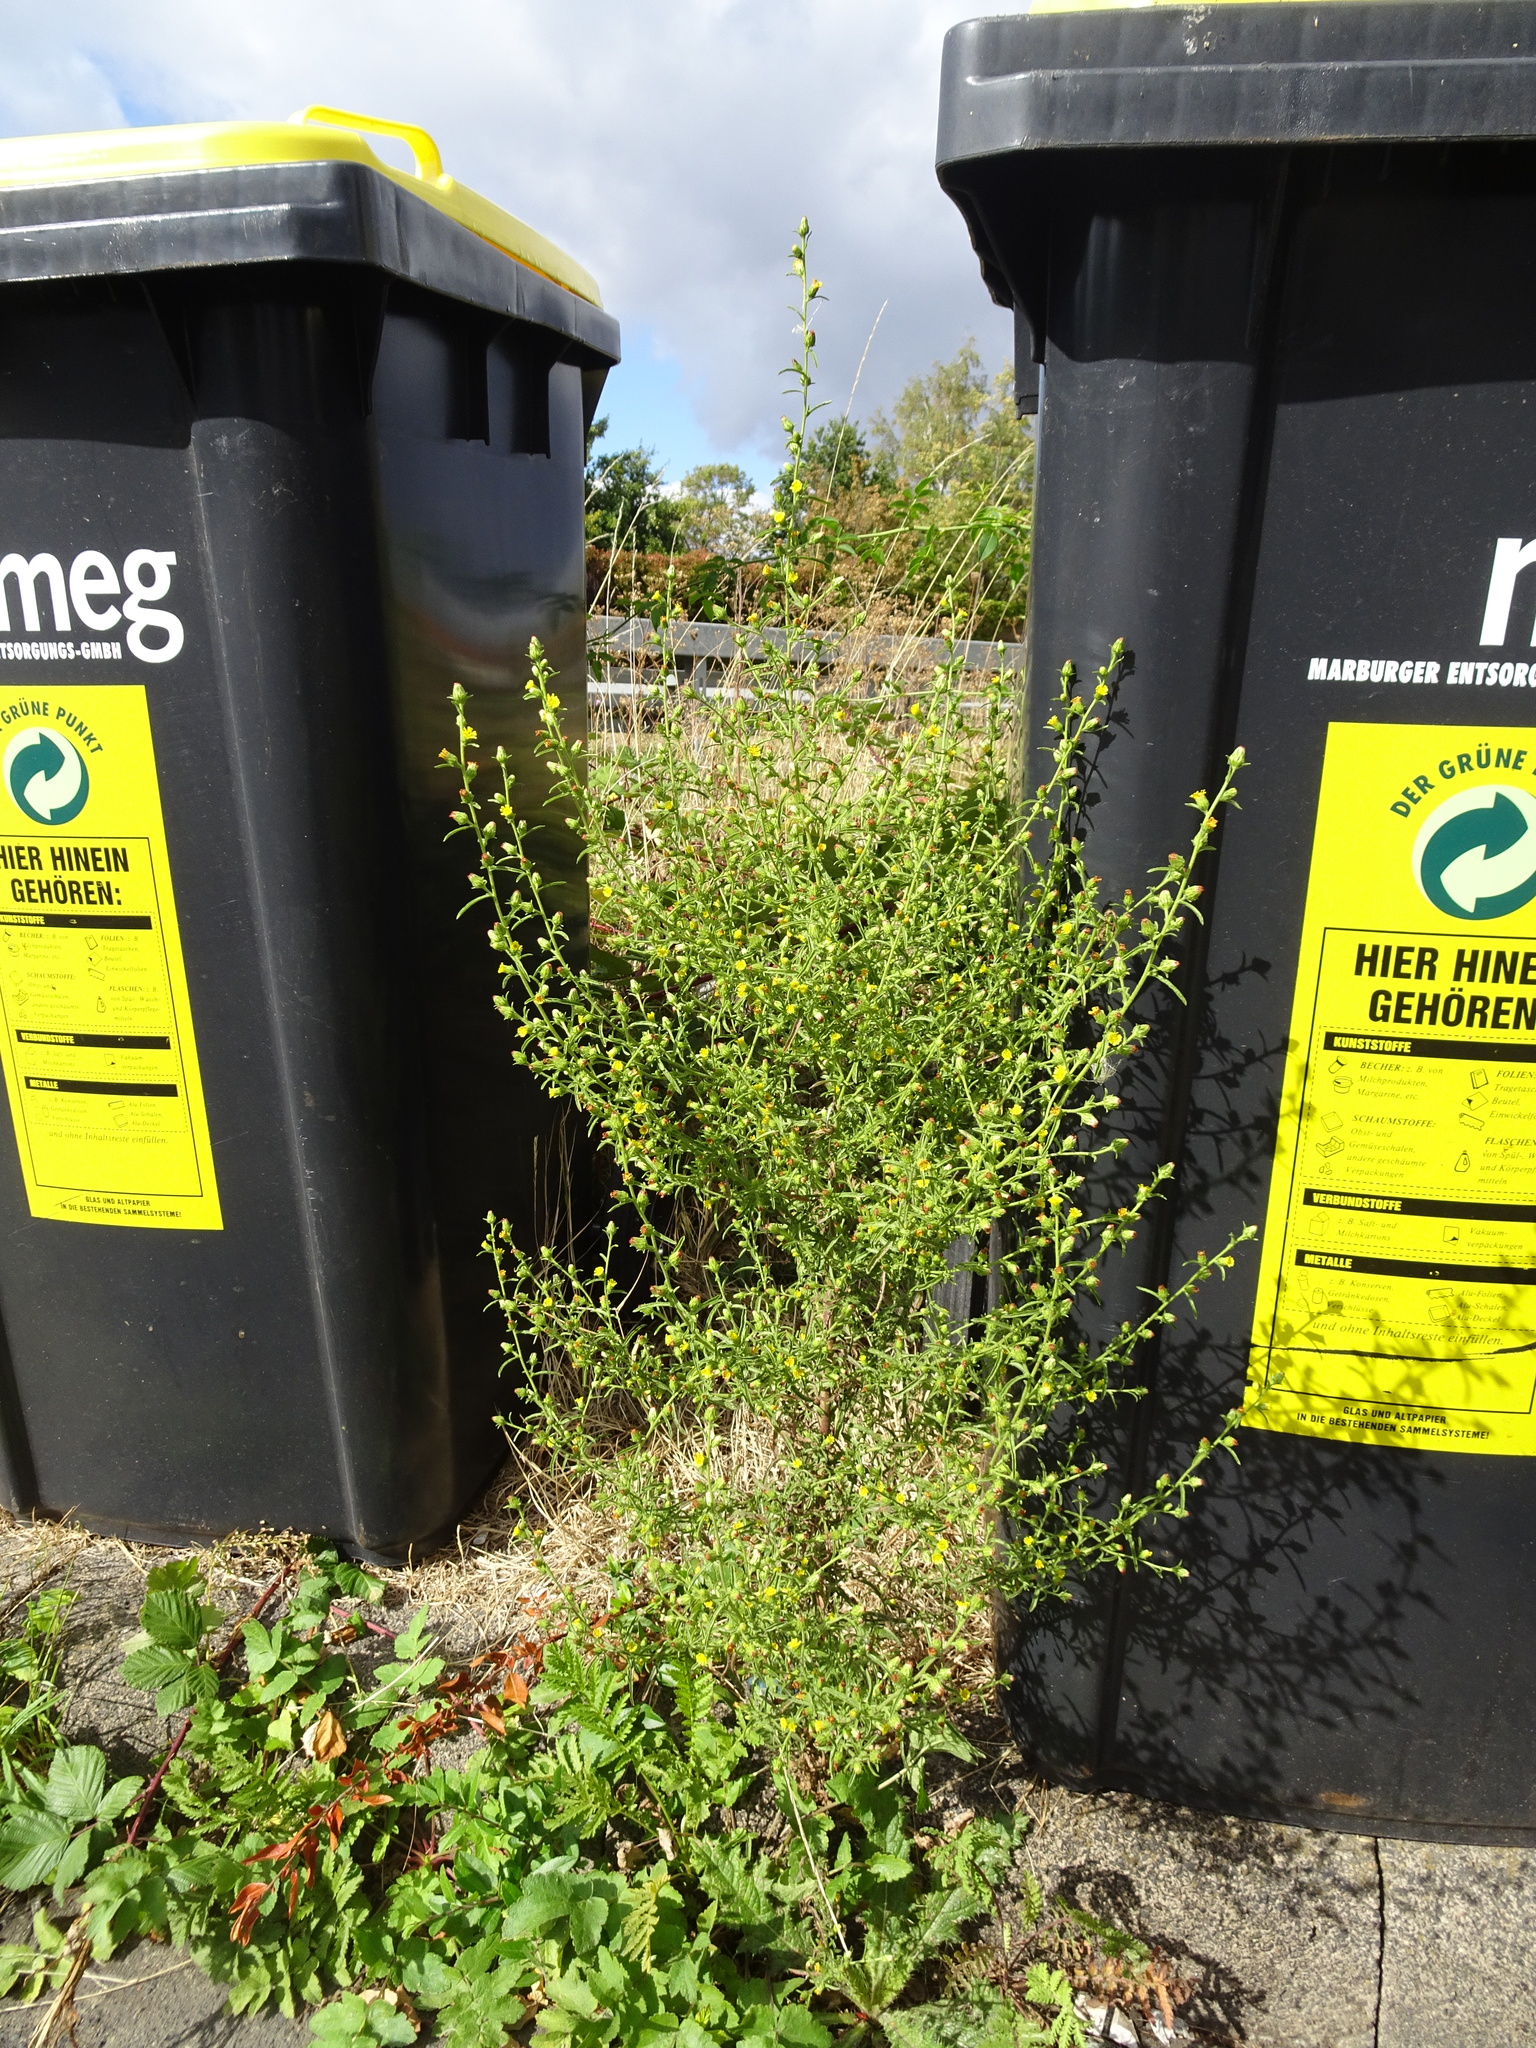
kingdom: Plantae
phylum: Tracheophyta
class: Magnoliopsida
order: Asterales
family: Asteraceae
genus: Dittrichia
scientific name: Dittrichia graveolens
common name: Stinking fleabane
